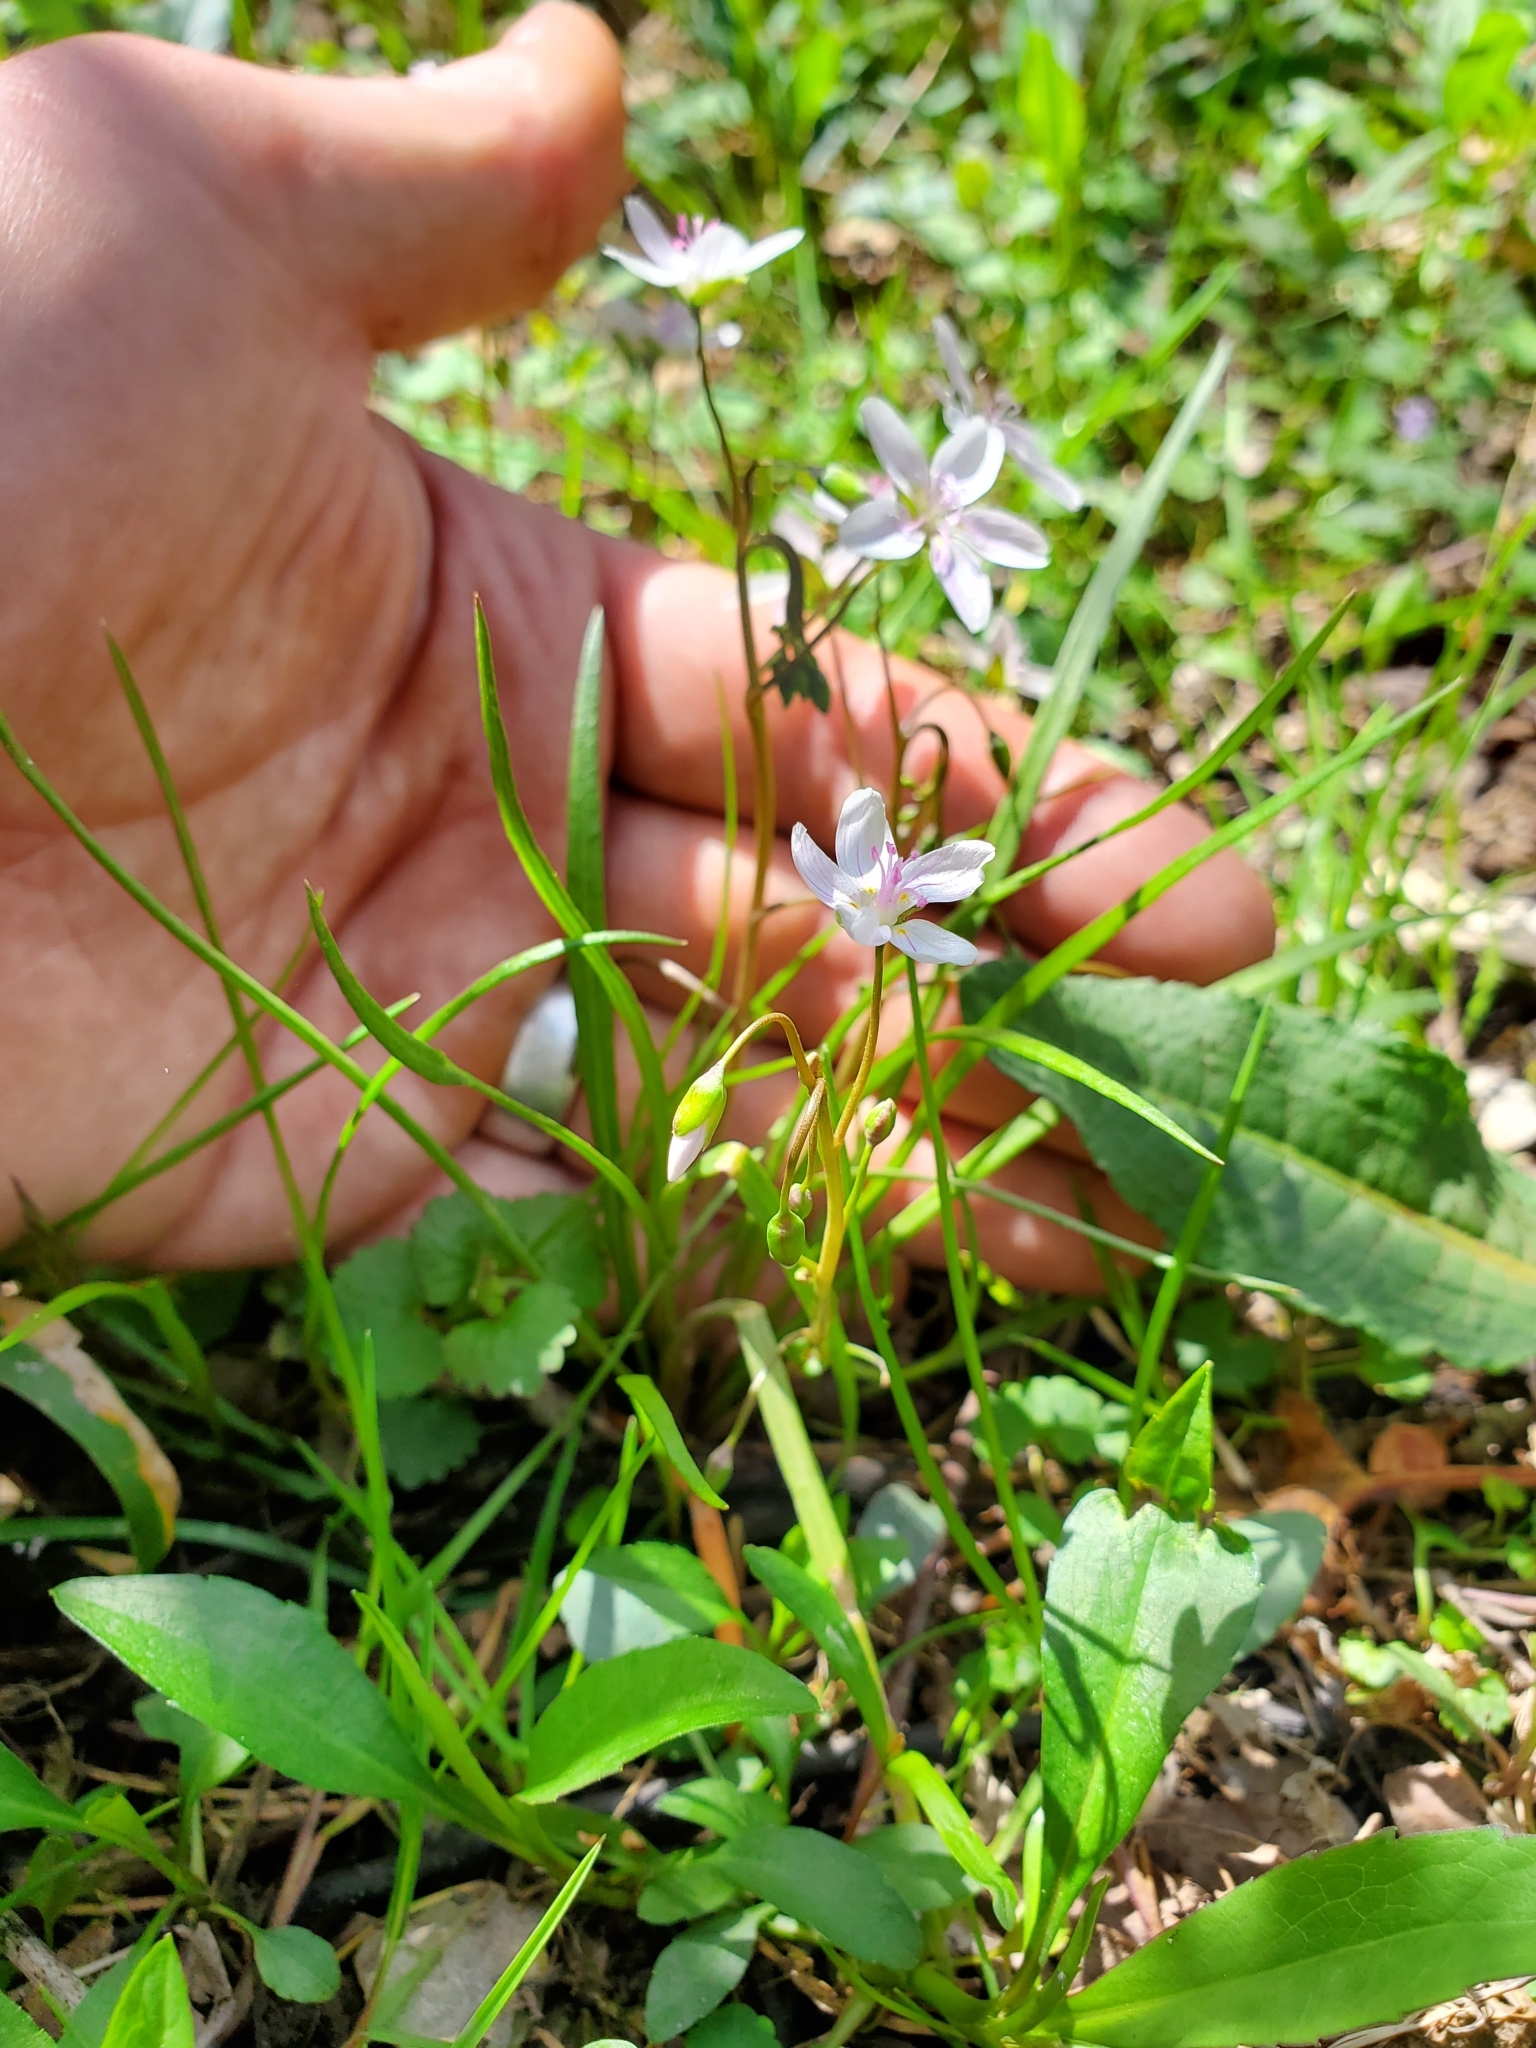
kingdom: Plantae
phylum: Tracheophyta
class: Magnoliopsida
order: Caryophyllales
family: Montiaceae
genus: Claytonia
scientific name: Claytonia virginica
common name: Virginia springbeauty
